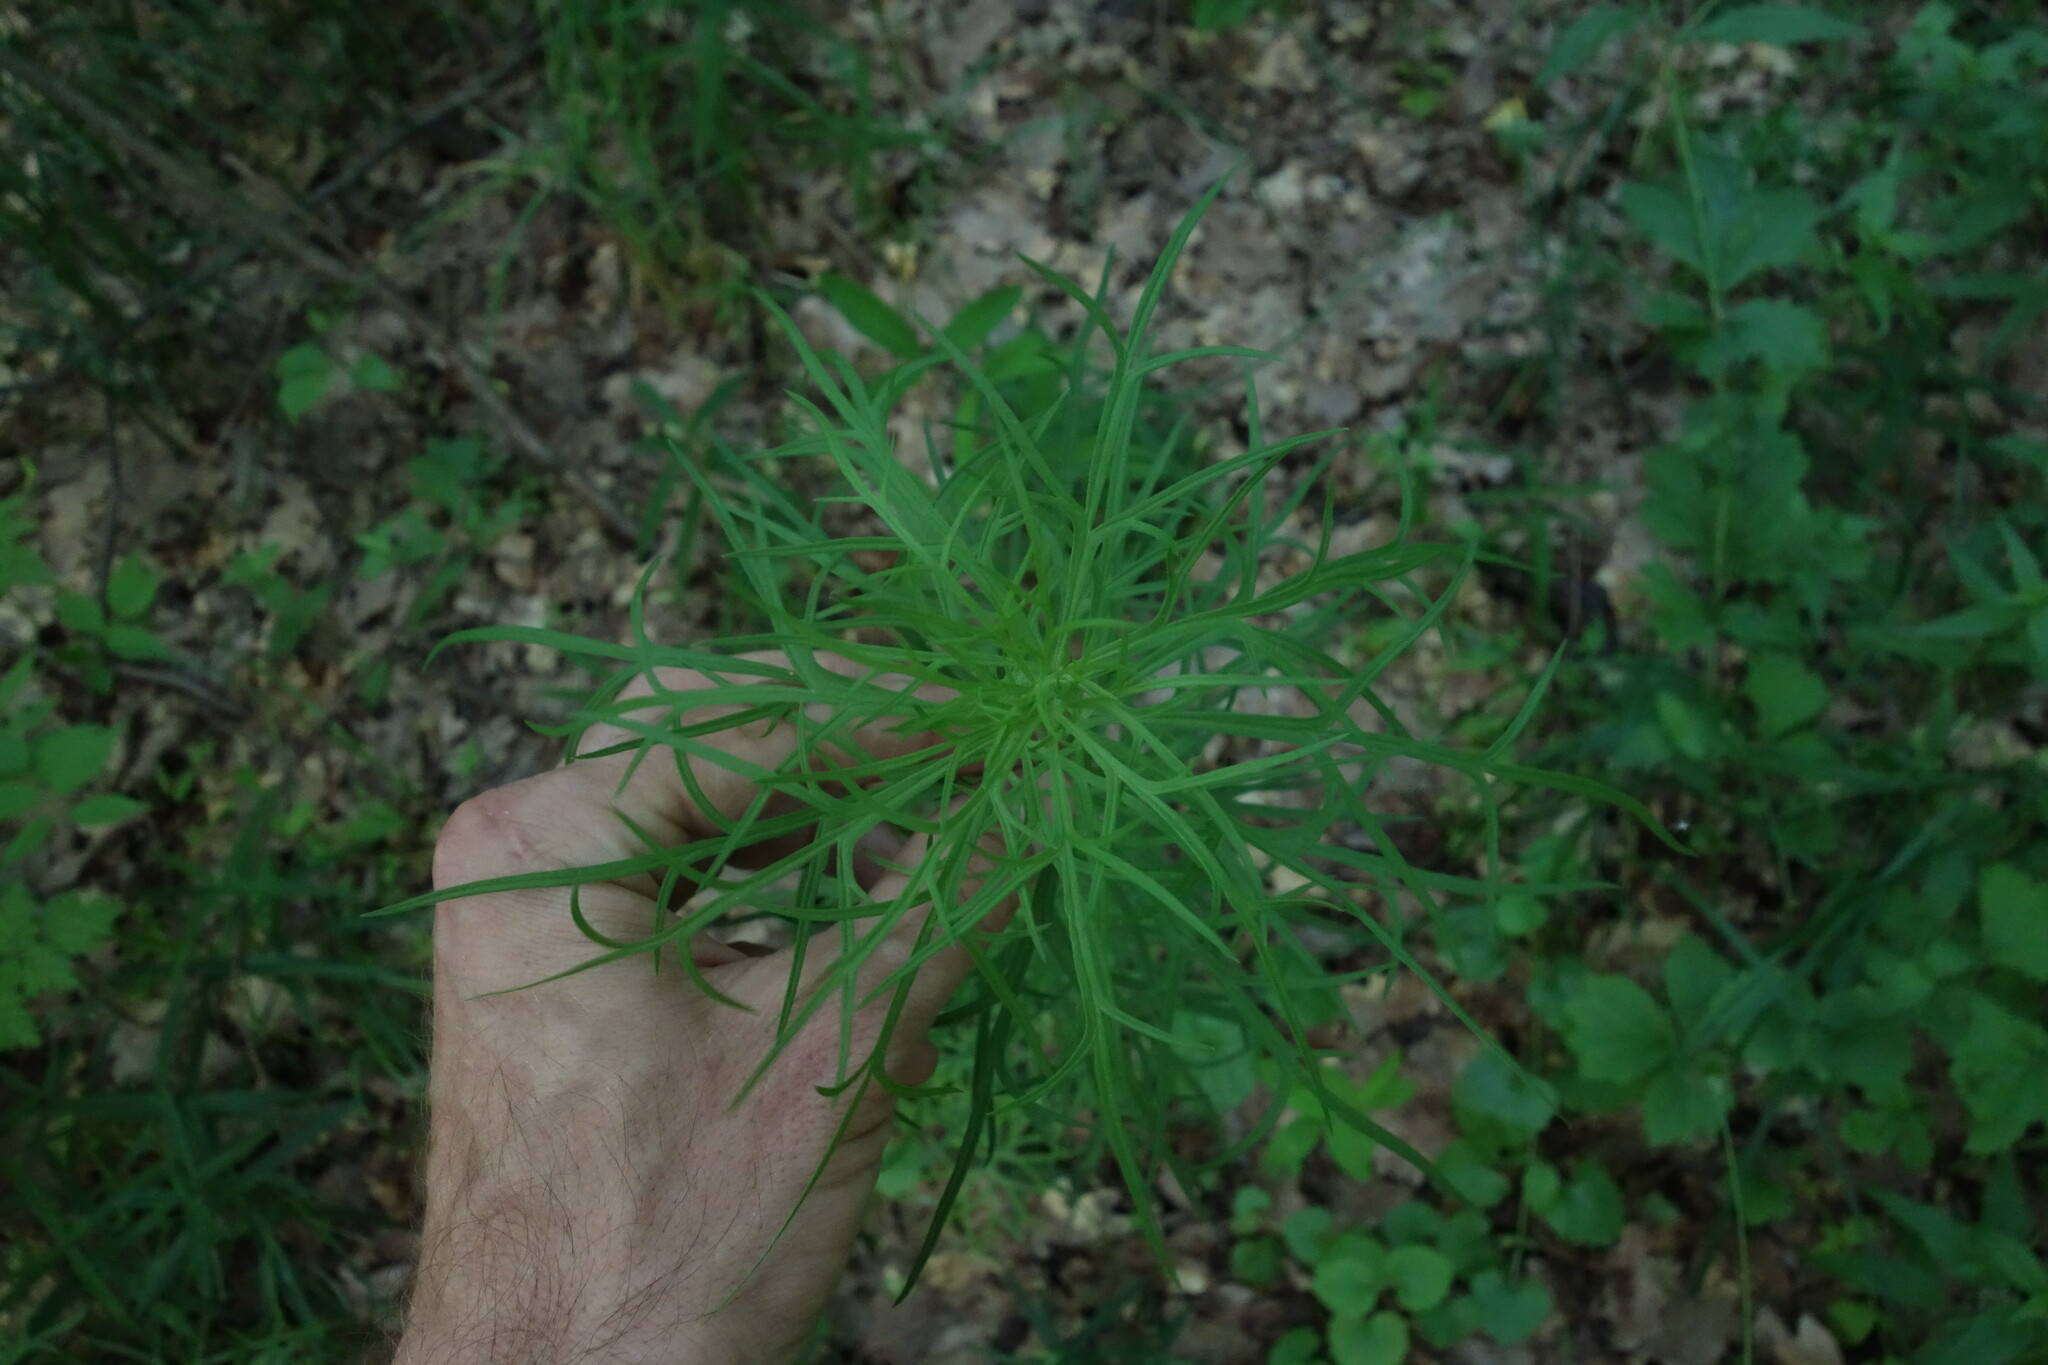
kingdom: Plantae
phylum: Tracheophyta
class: Magnoliopsida
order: Ranunculales
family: Ranunculaceae
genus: Aconitum
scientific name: Aconitum anthora
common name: Yellow monkshood
